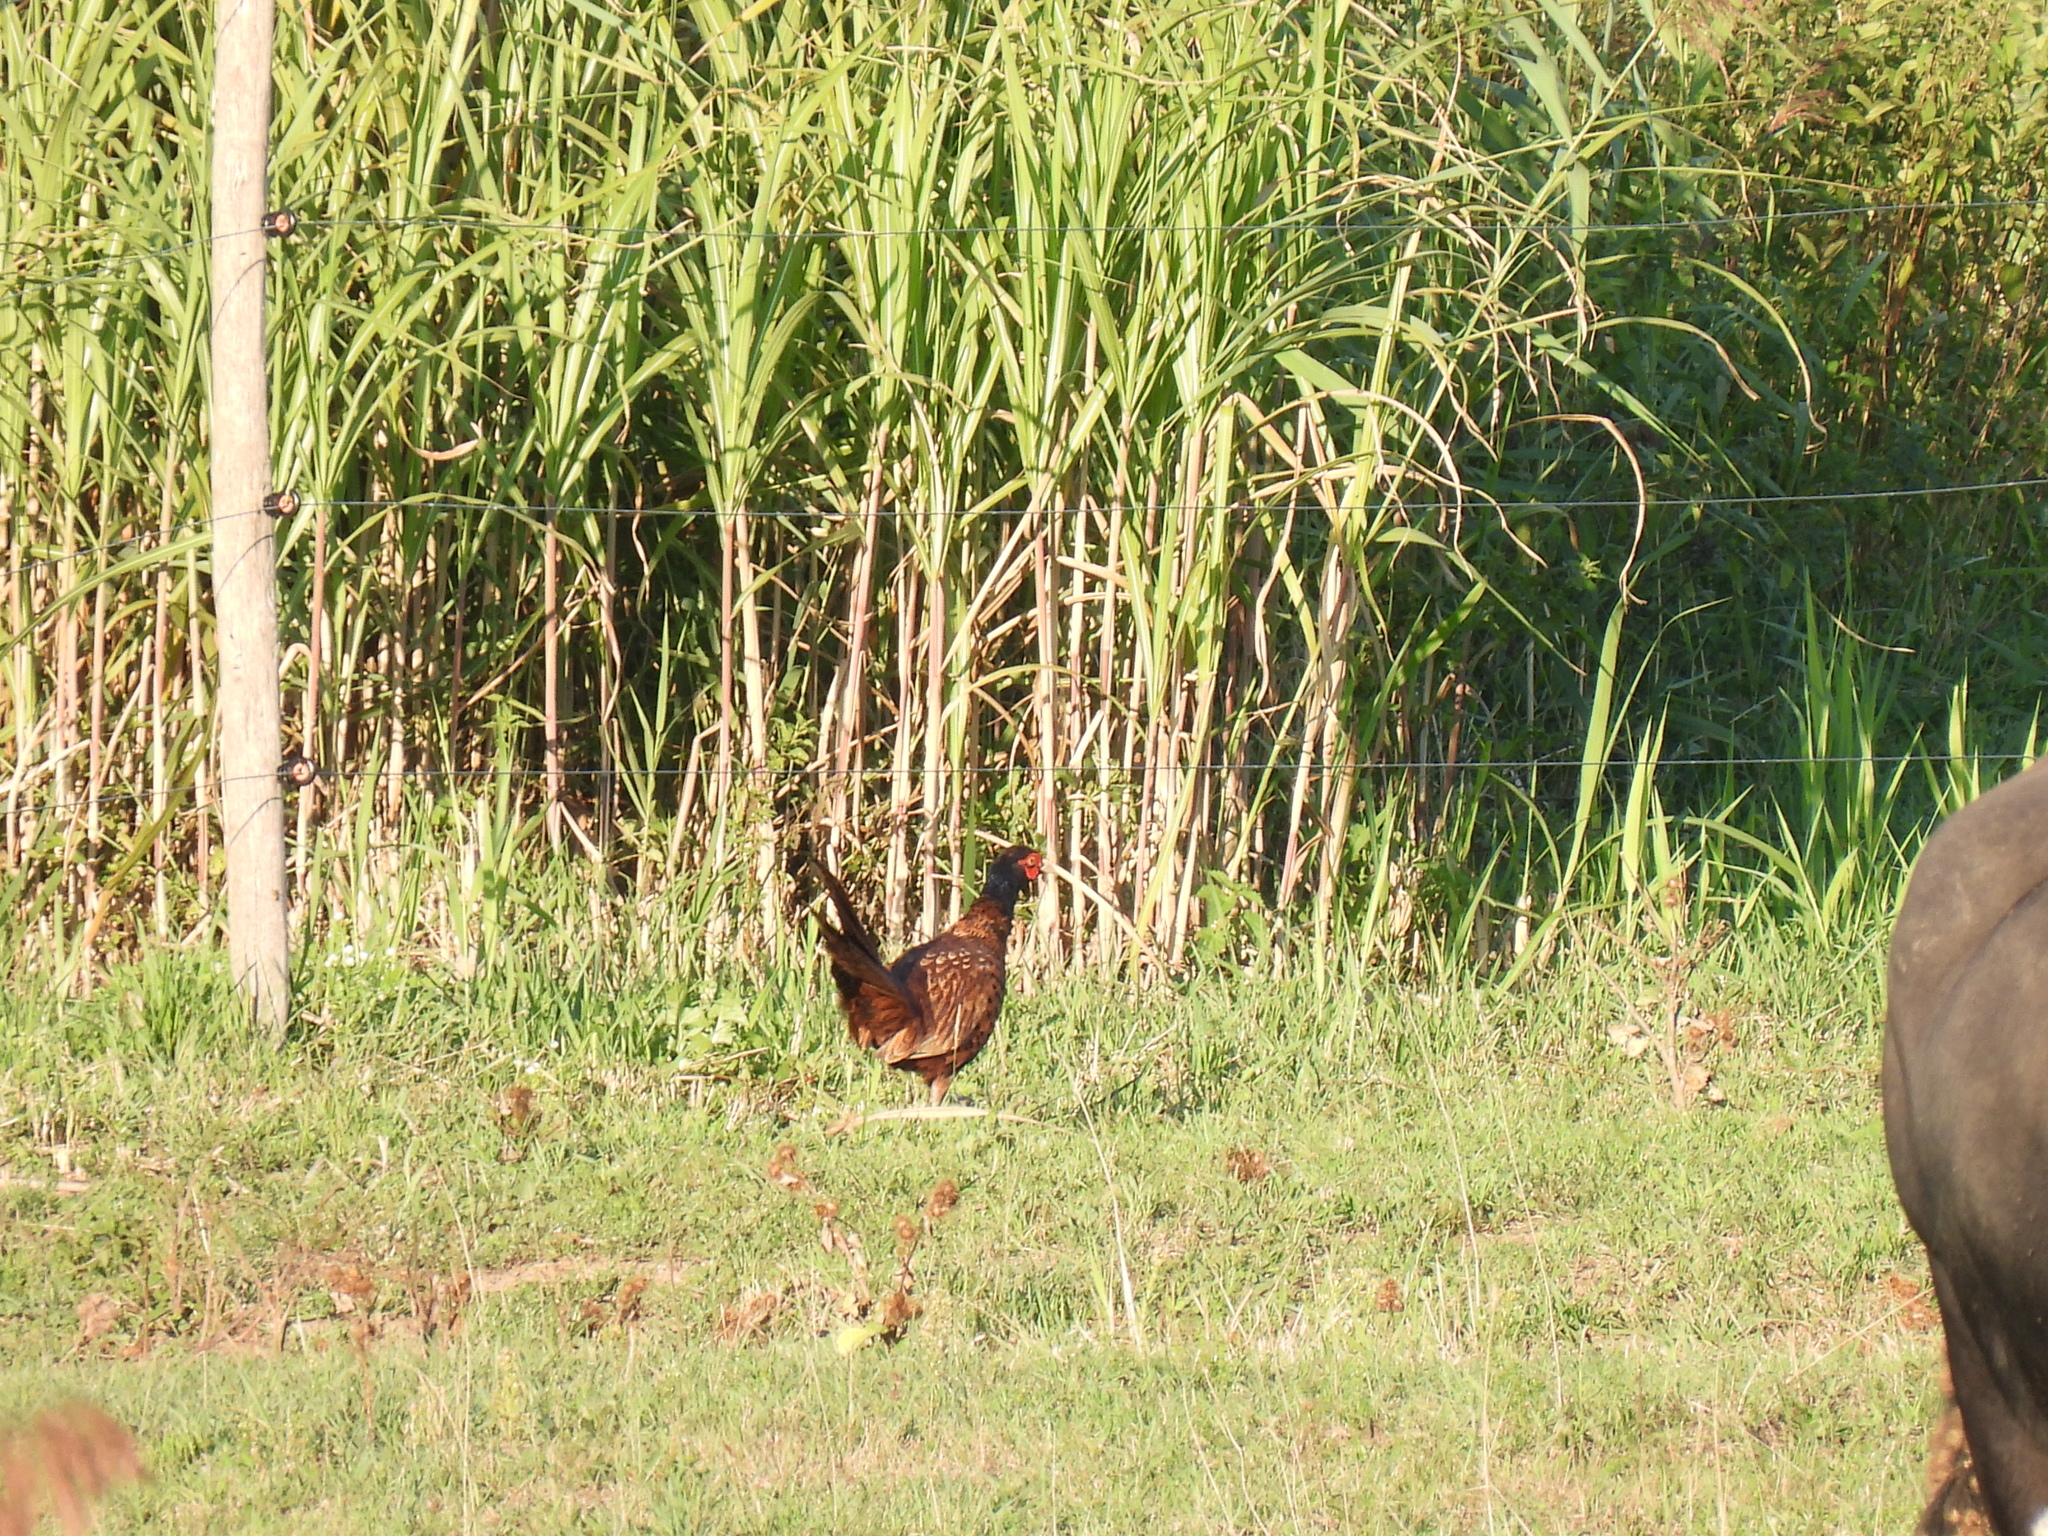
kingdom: Animalia
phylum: Chordata
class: Aves
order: Galliformes
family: Phasianidae
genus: Phasianus
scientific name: Phasianus colchicus
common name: Common pheasant
